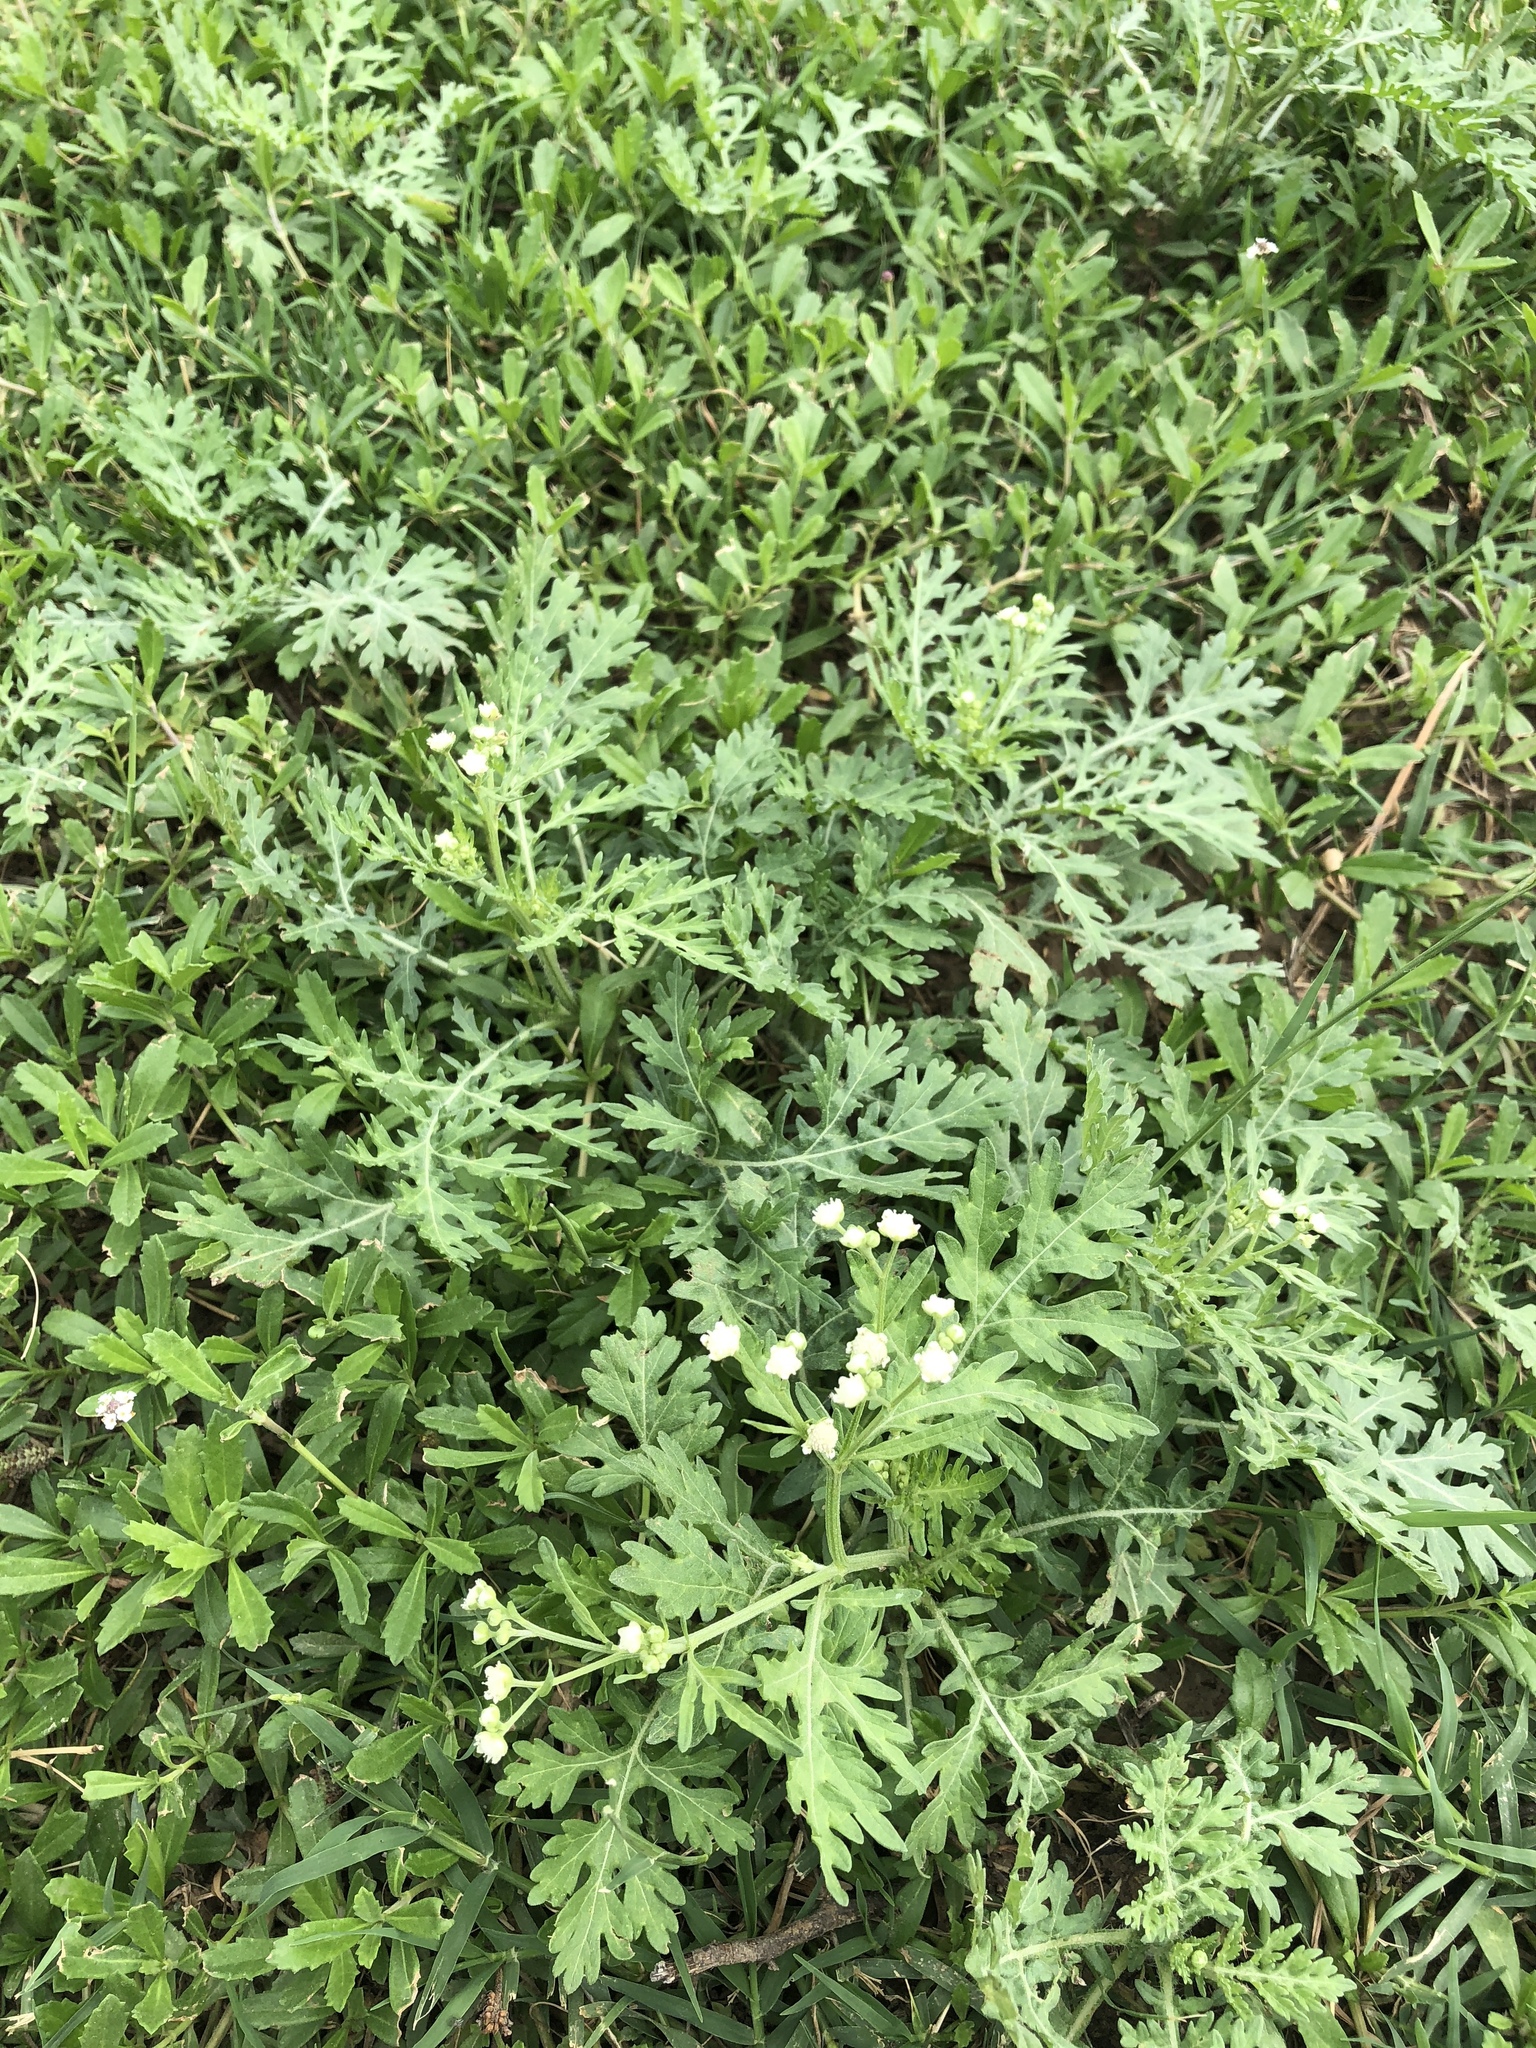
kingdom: Plantae
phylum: Tracheophyta
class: Magnoliopsida
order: Asterales
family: Asteraceae
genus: Parthenium
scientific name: Parthenium hysterophorus
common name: Santa maria feverfew
